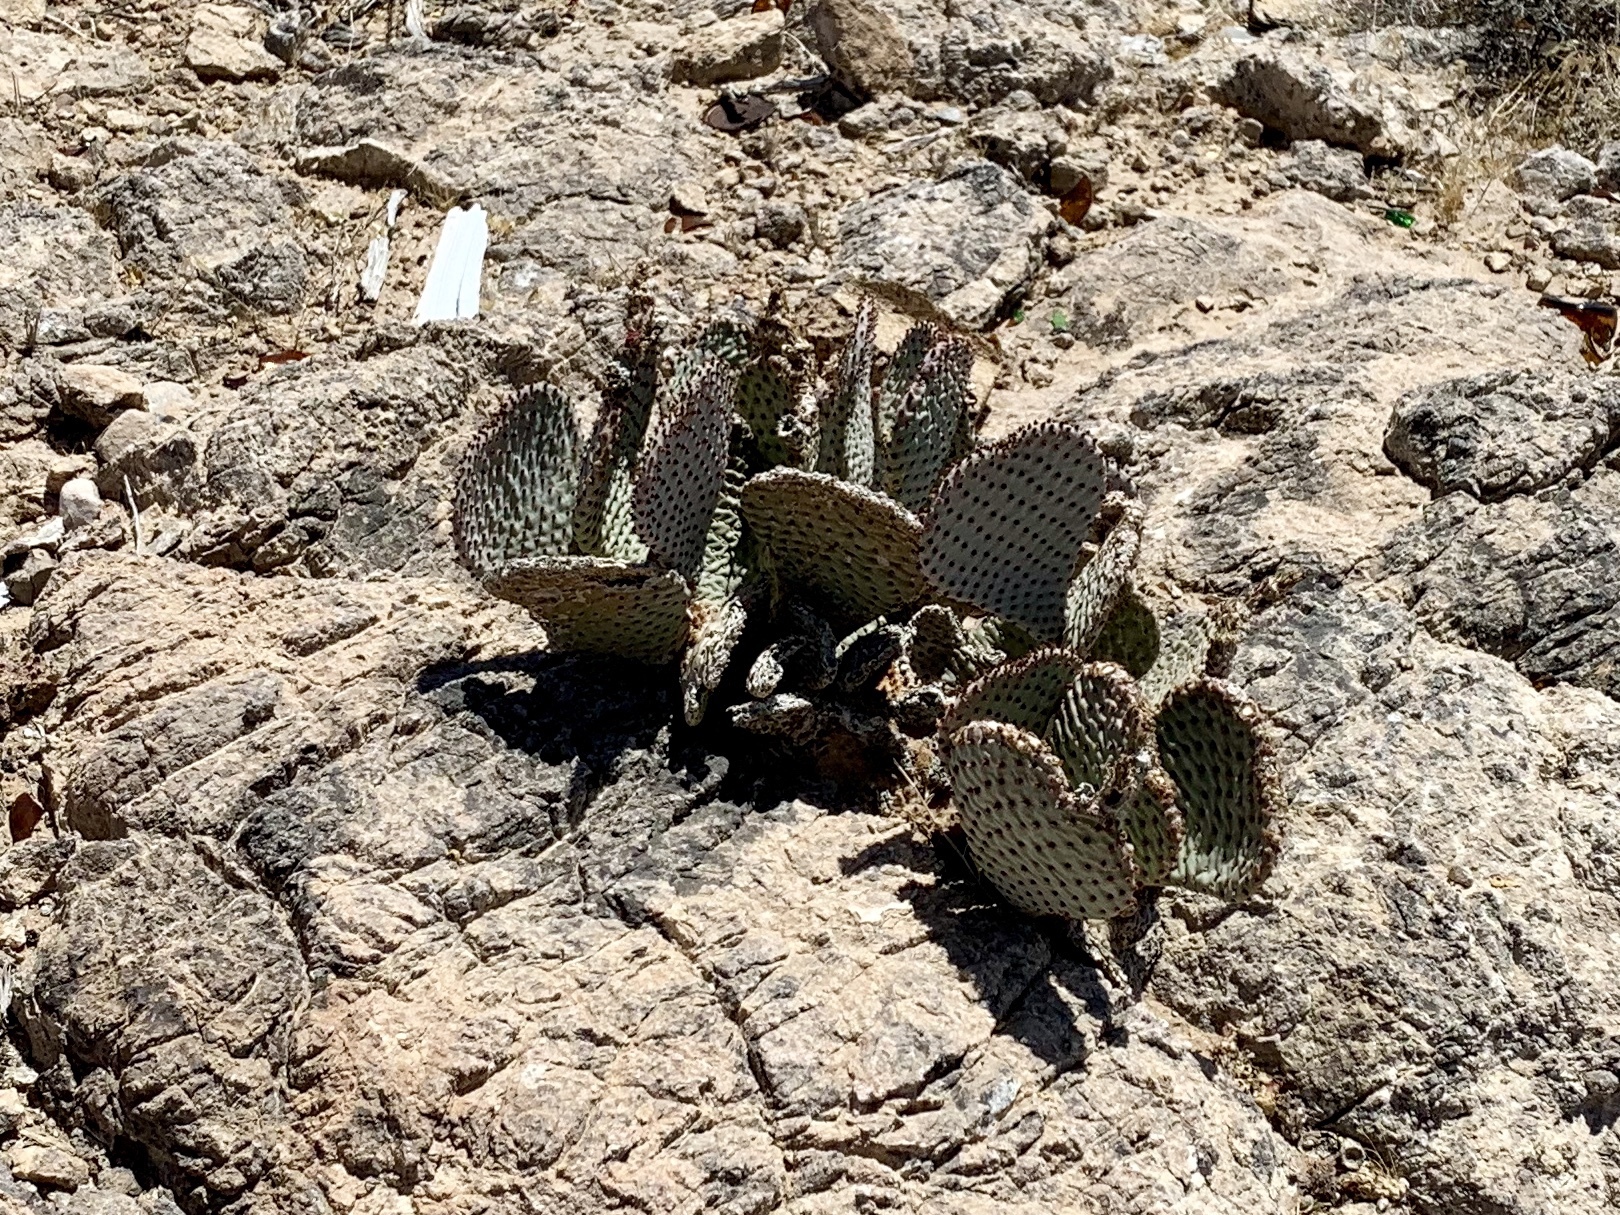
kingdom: Plantae
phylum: Tracheophyta
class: Magnoliopsida
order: Caryophyllales
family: Cactaceae
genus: Opuntia
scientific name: Opuntia basilaris
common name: Beavertail prickly-pear
